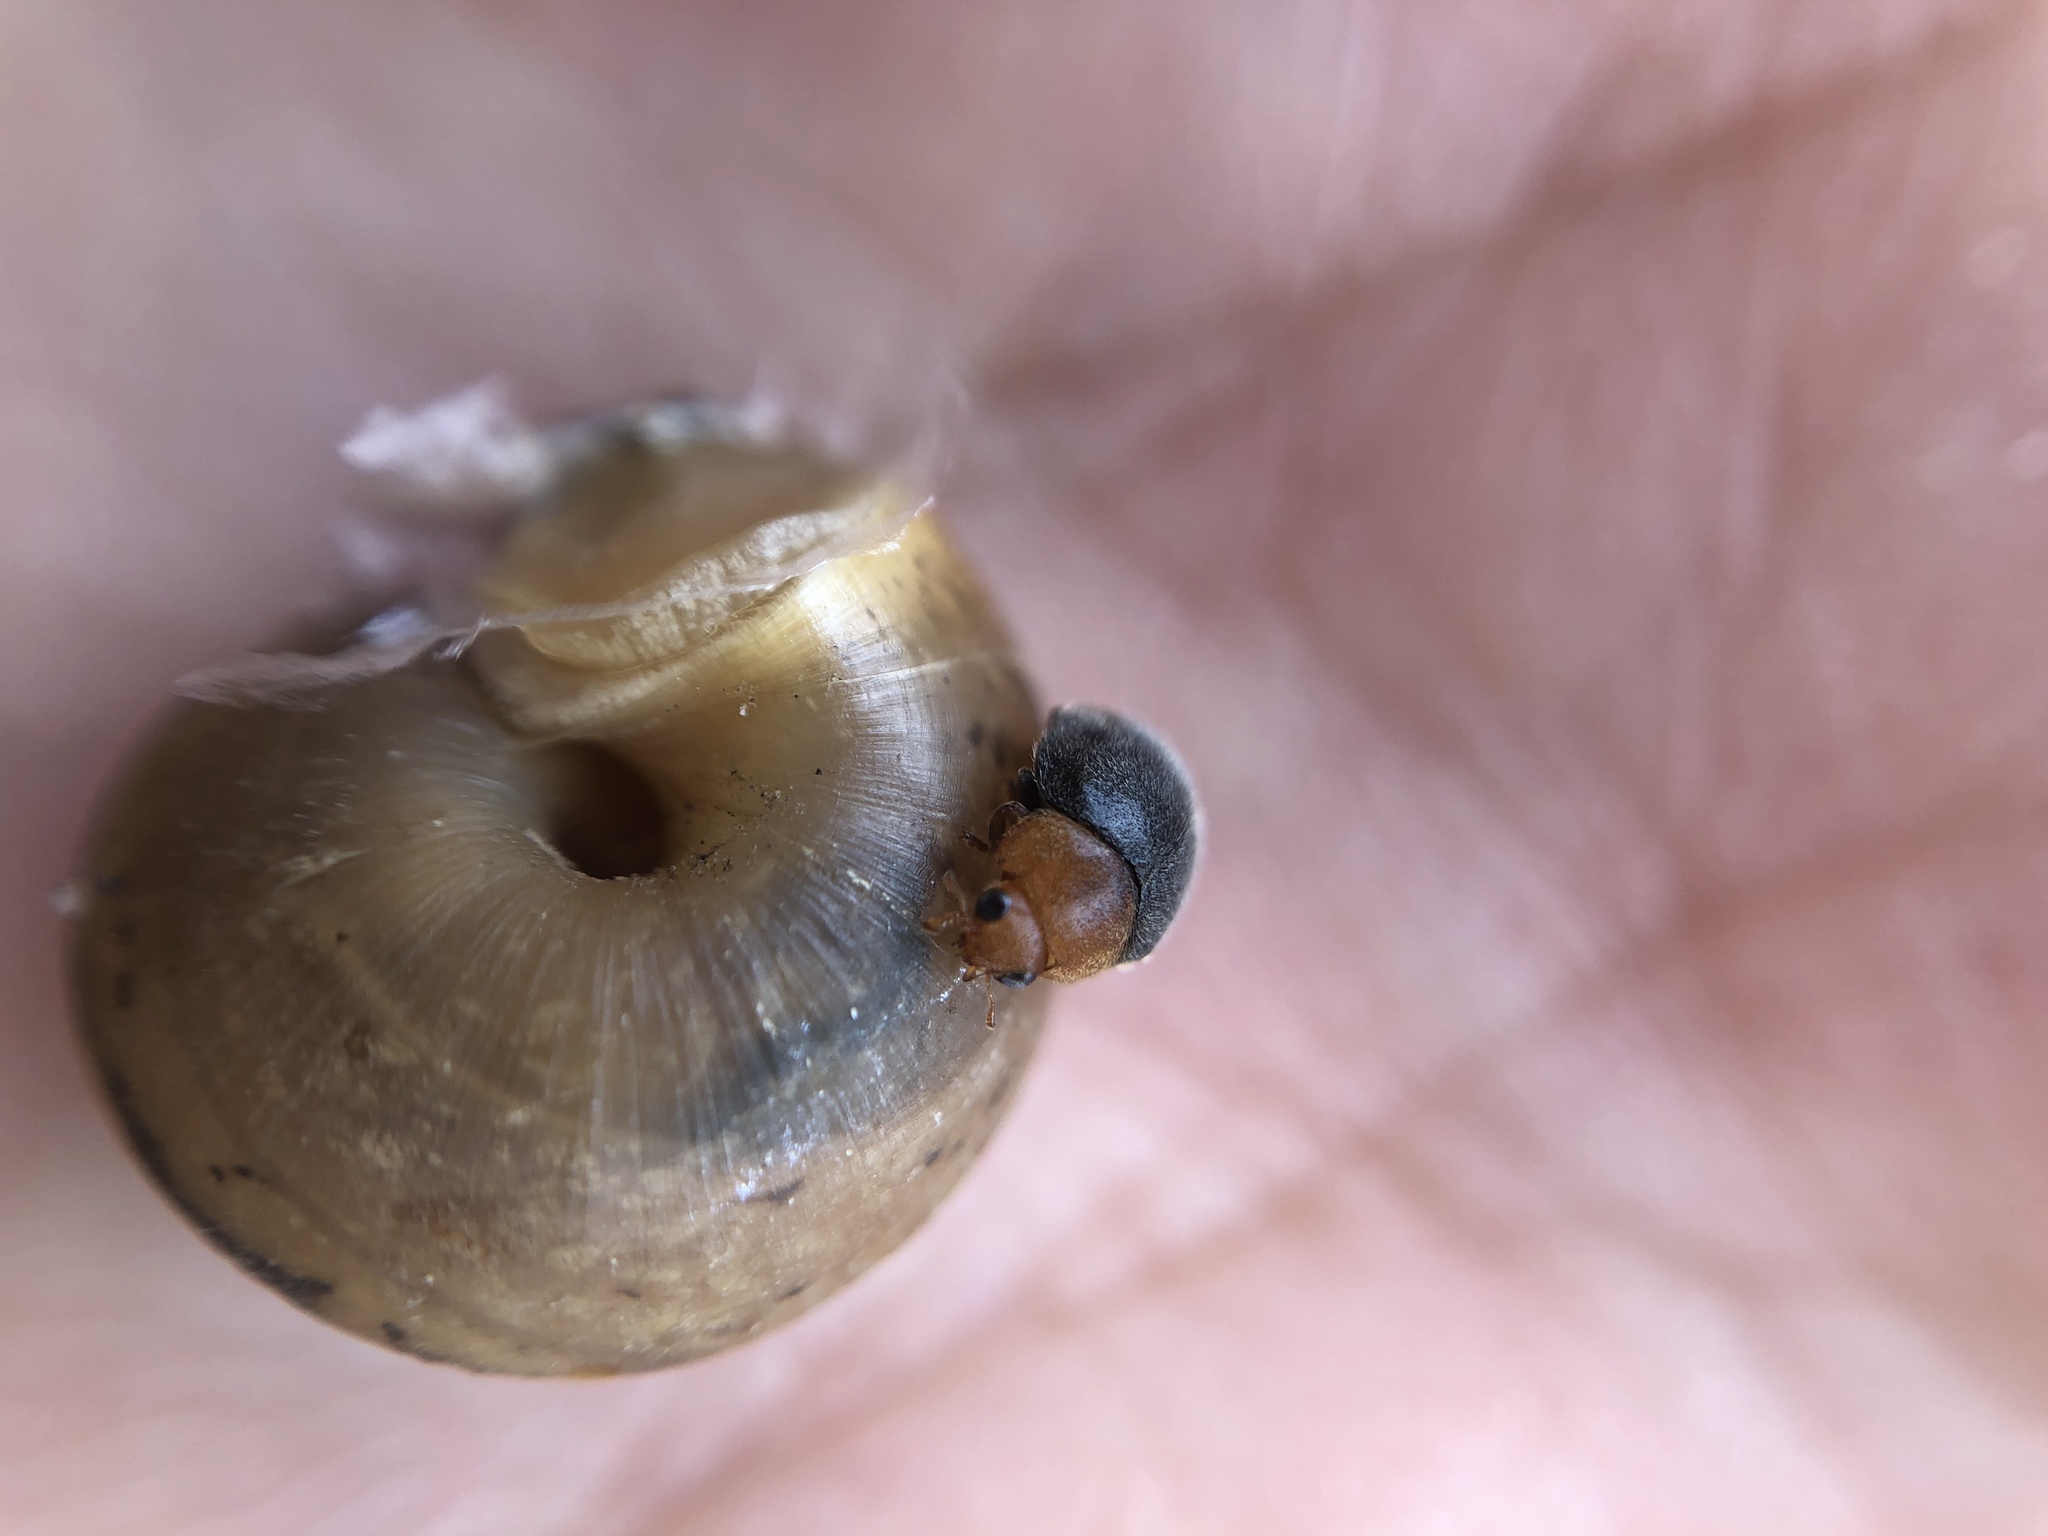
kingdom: Animalia
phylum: Arthropoda
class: Insecta
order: Coleoptera
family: Coccinellidae
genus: Cryptolaemus
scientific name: Cryptolaemus montrouzieri
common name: Mealybug destroyer
